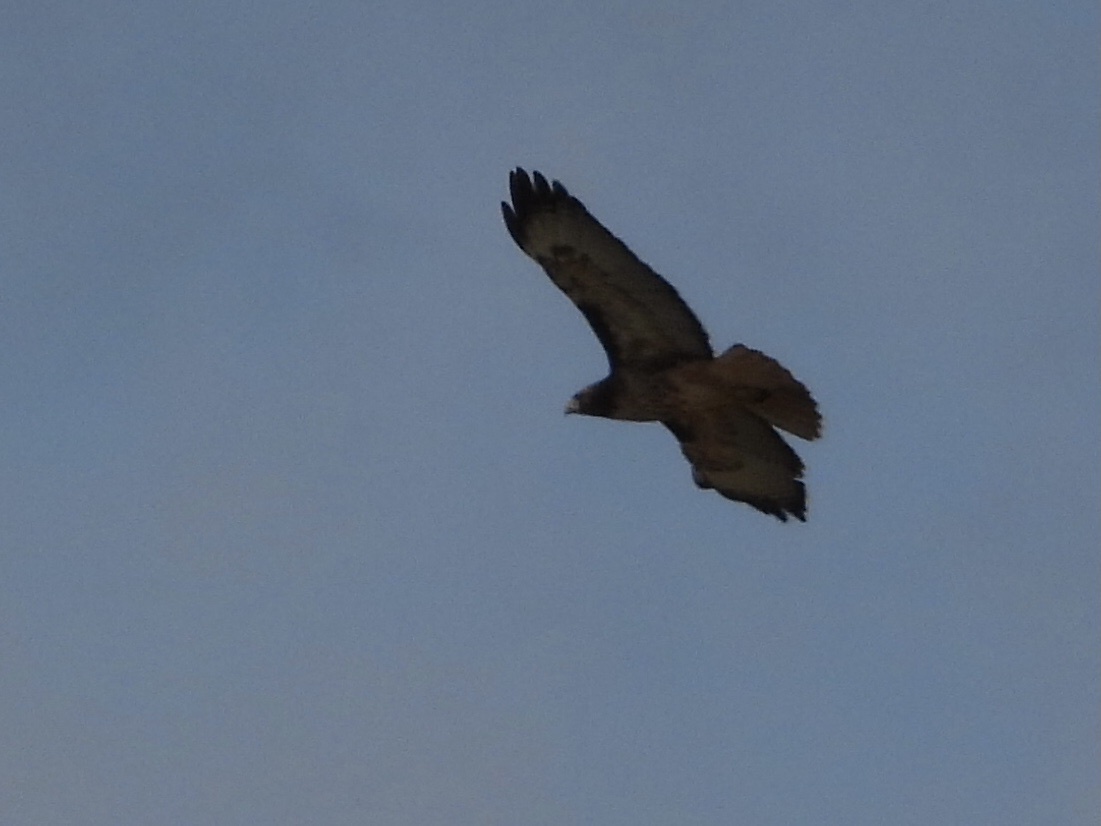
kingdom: Animalia
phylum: Chordata
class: Aves
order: Accipitriformes
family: Accipitridae
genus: Buteo
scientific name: Buteo jamaicensis
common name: Red-tailed hawk
